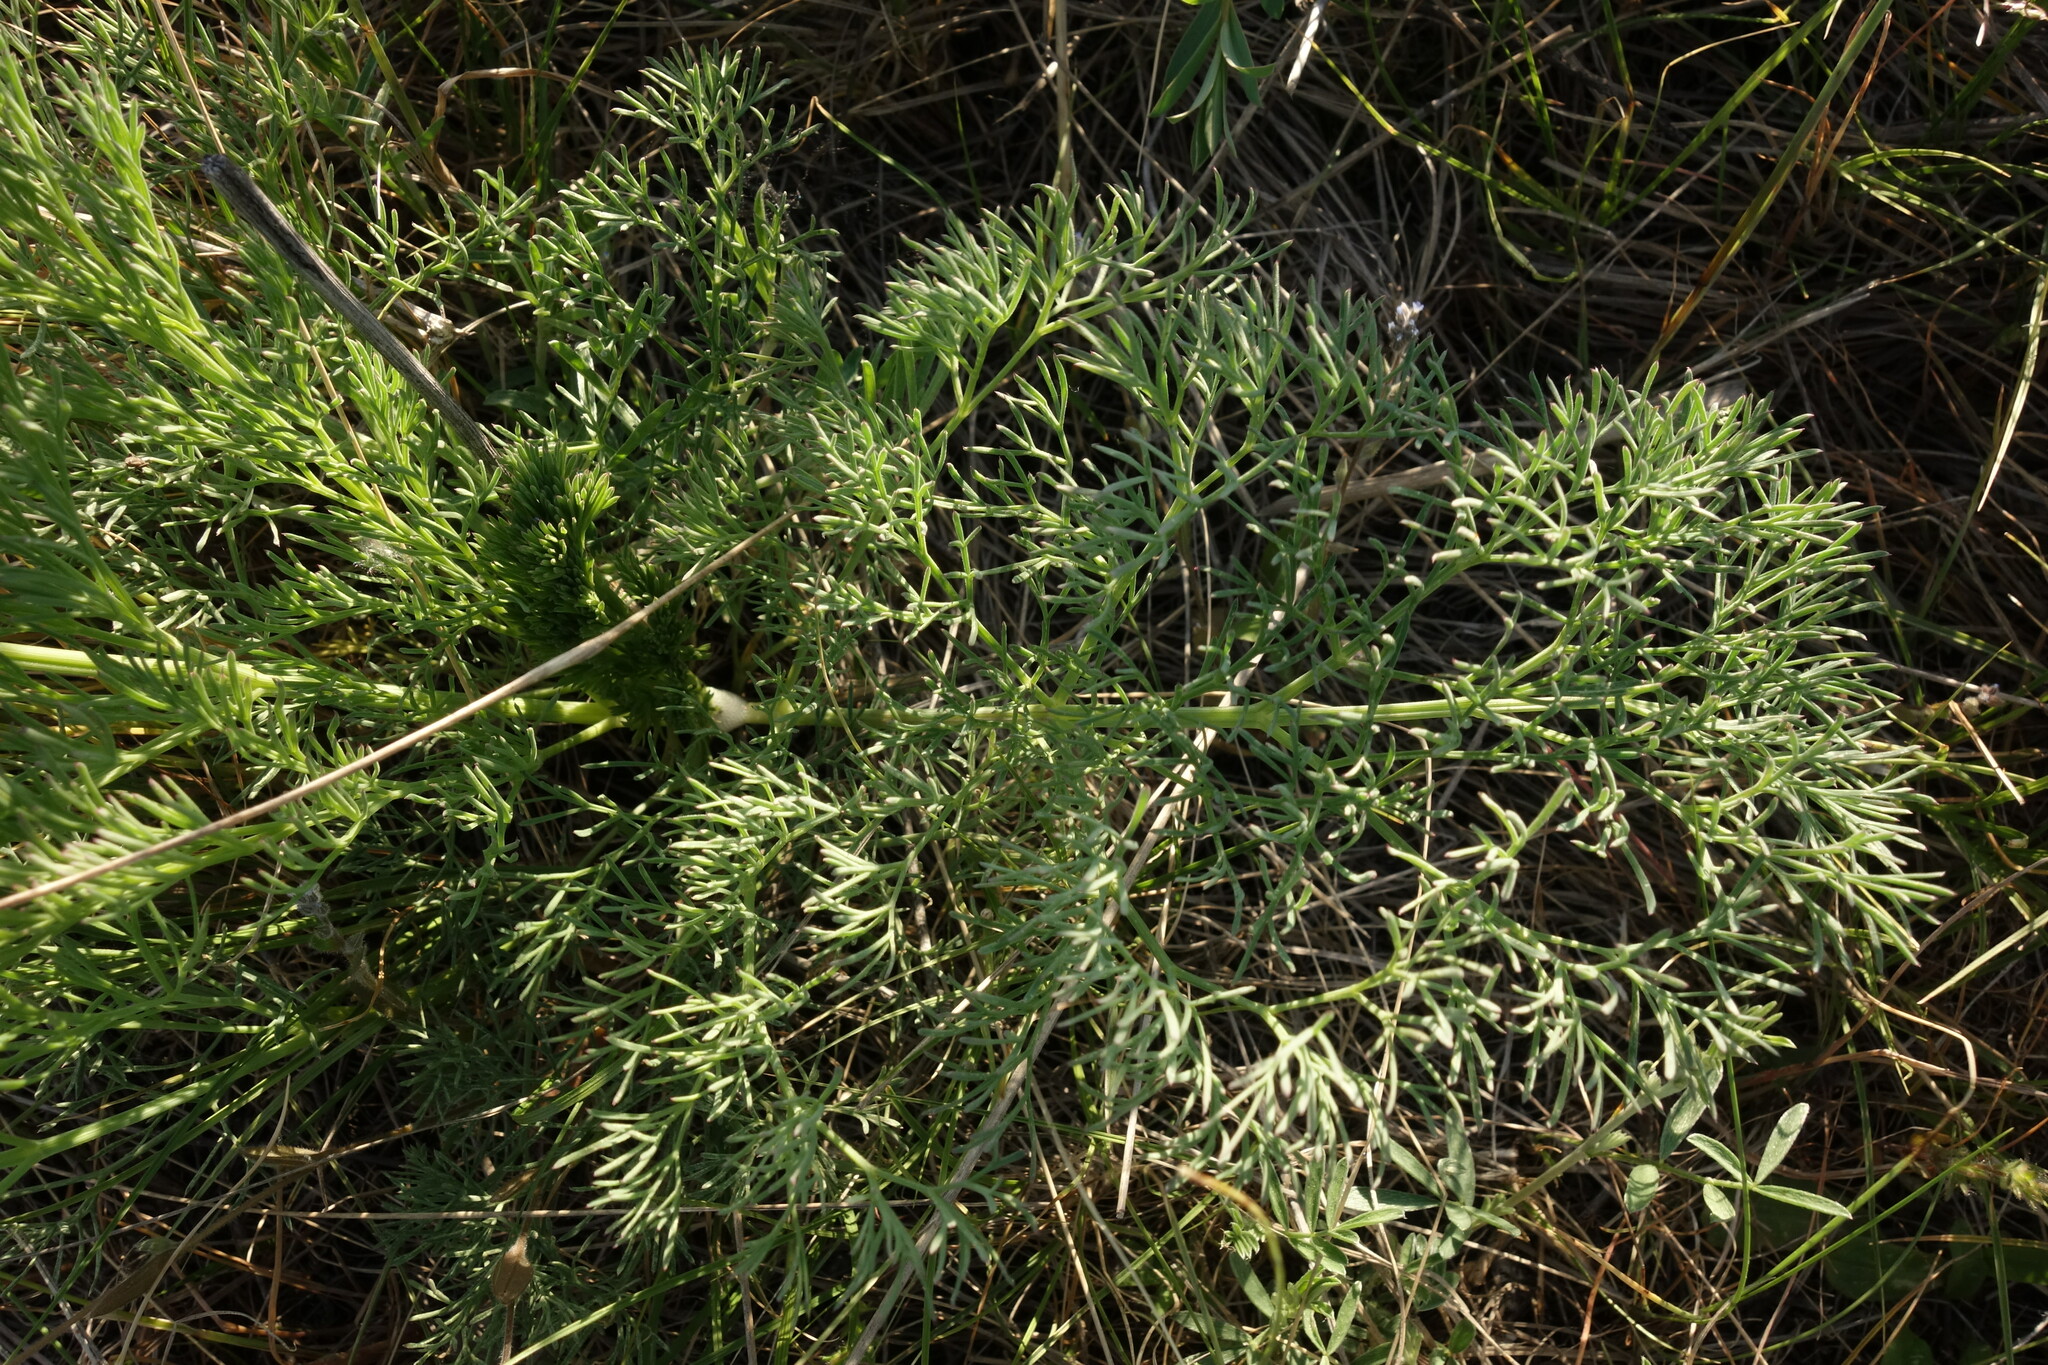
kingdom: Plantae
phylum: Tracheophyta
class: Magnoliopsida
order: Apiales
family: Apiaceae
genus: Seseli
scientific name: Seseli arenarium
